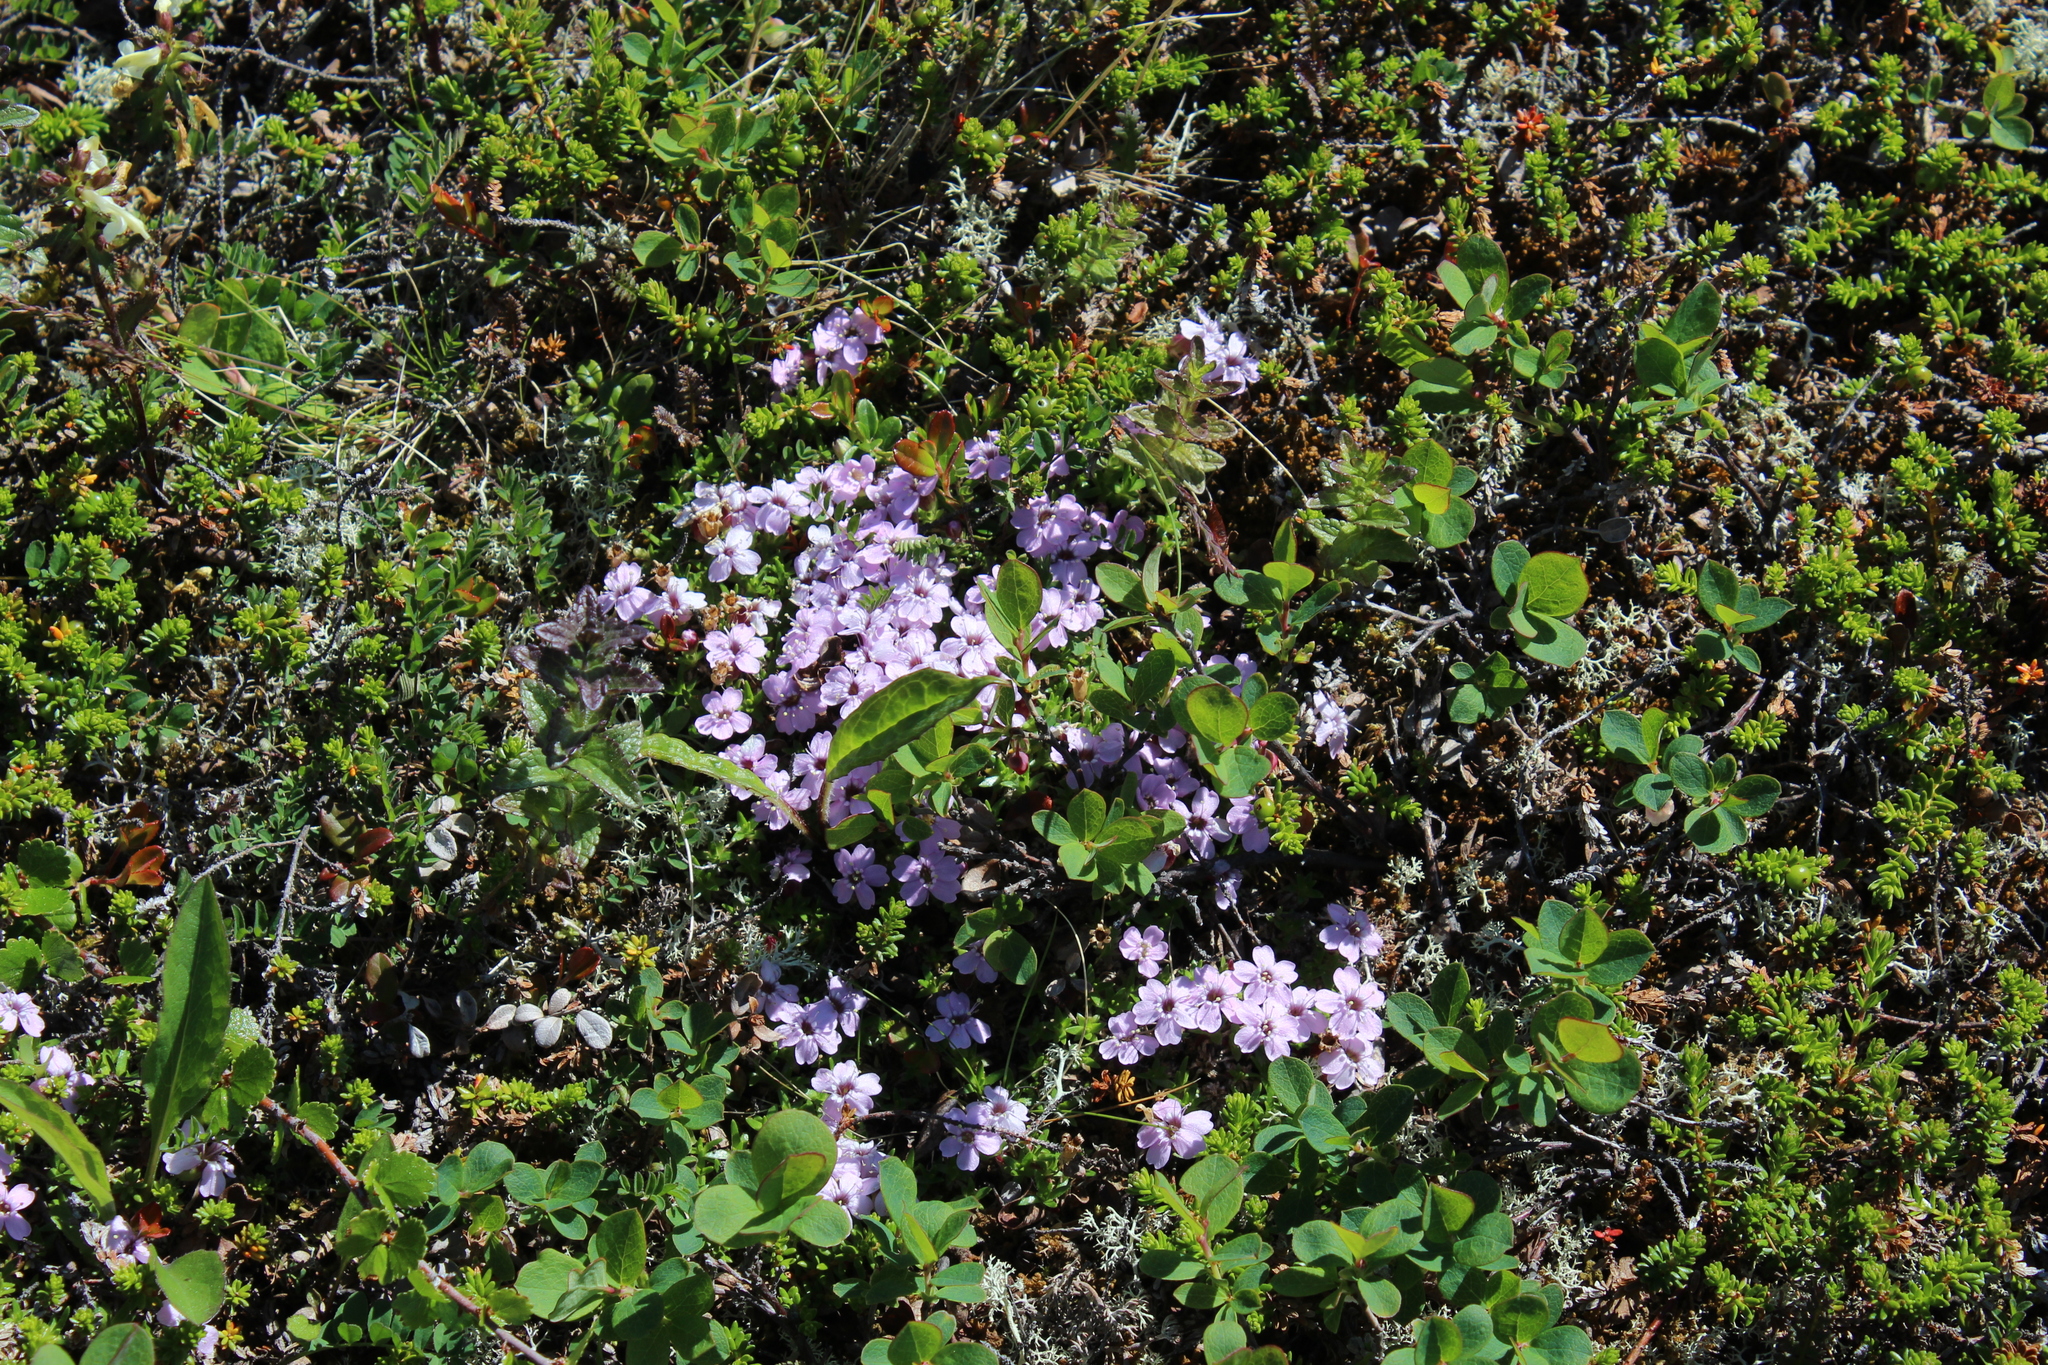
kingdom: Plantae
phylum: Tracheophyta
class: Magnoliopsida
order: Caryophyllales
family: Caryophyllaceae
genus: Silene
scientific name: Silene acaulis
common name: Moss campion
